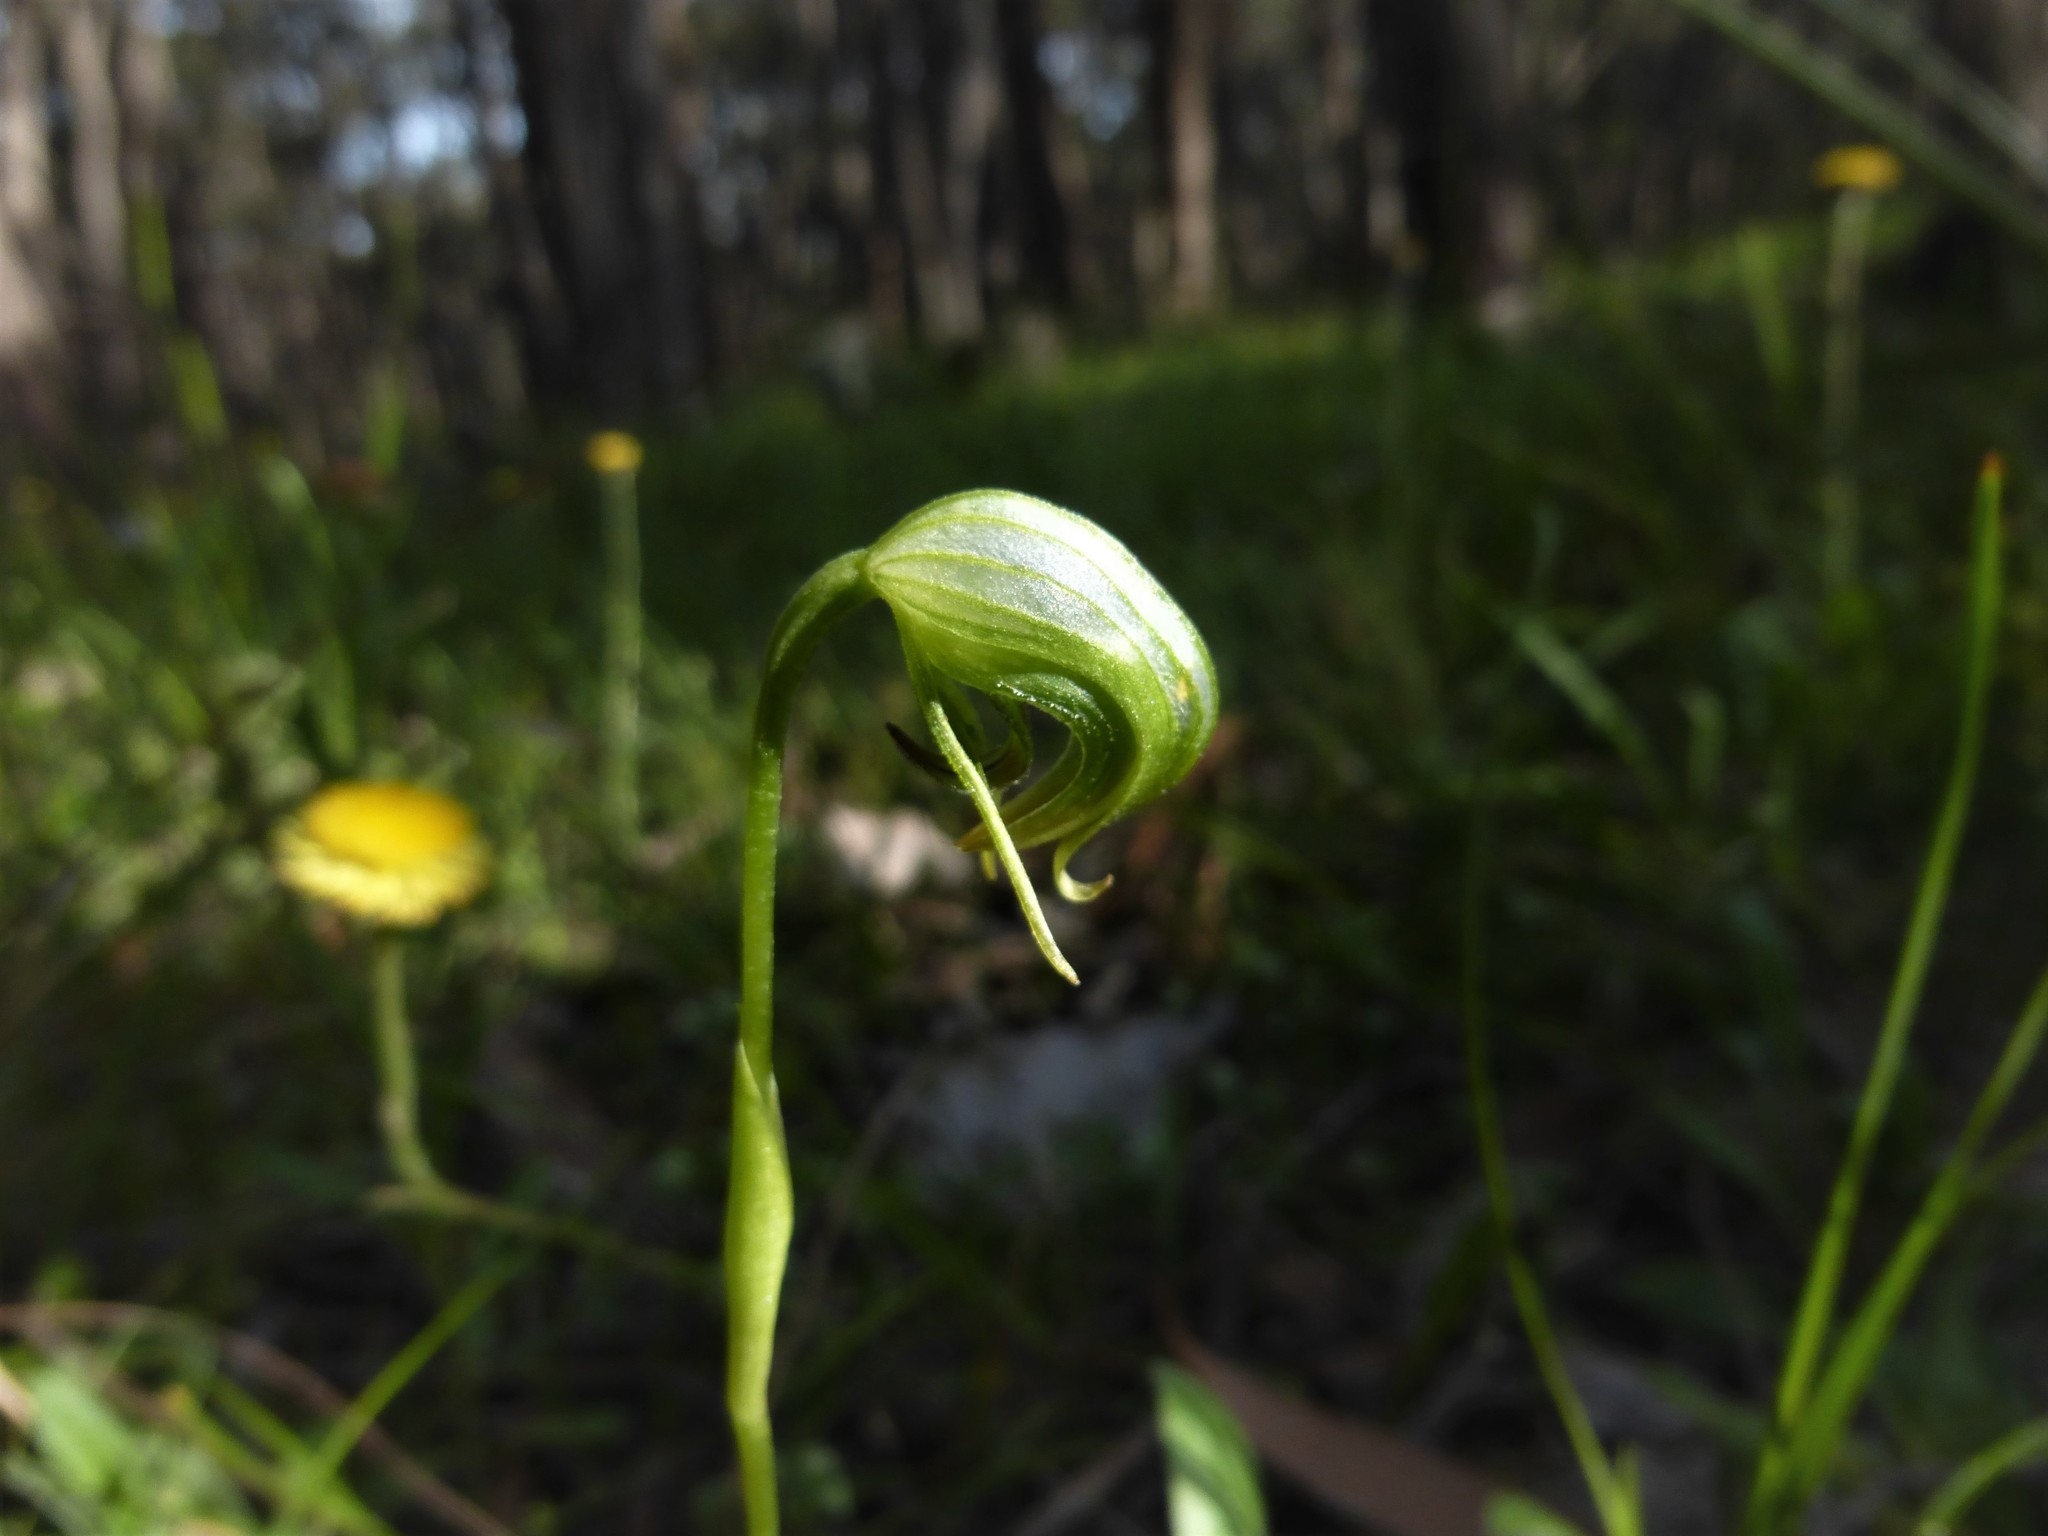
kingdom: Plantae
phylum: Tracheophyta
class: Liliopsida
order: Asparagales
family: Orchidaceae
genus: Pterostylis
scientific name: Pterostylis nutans
